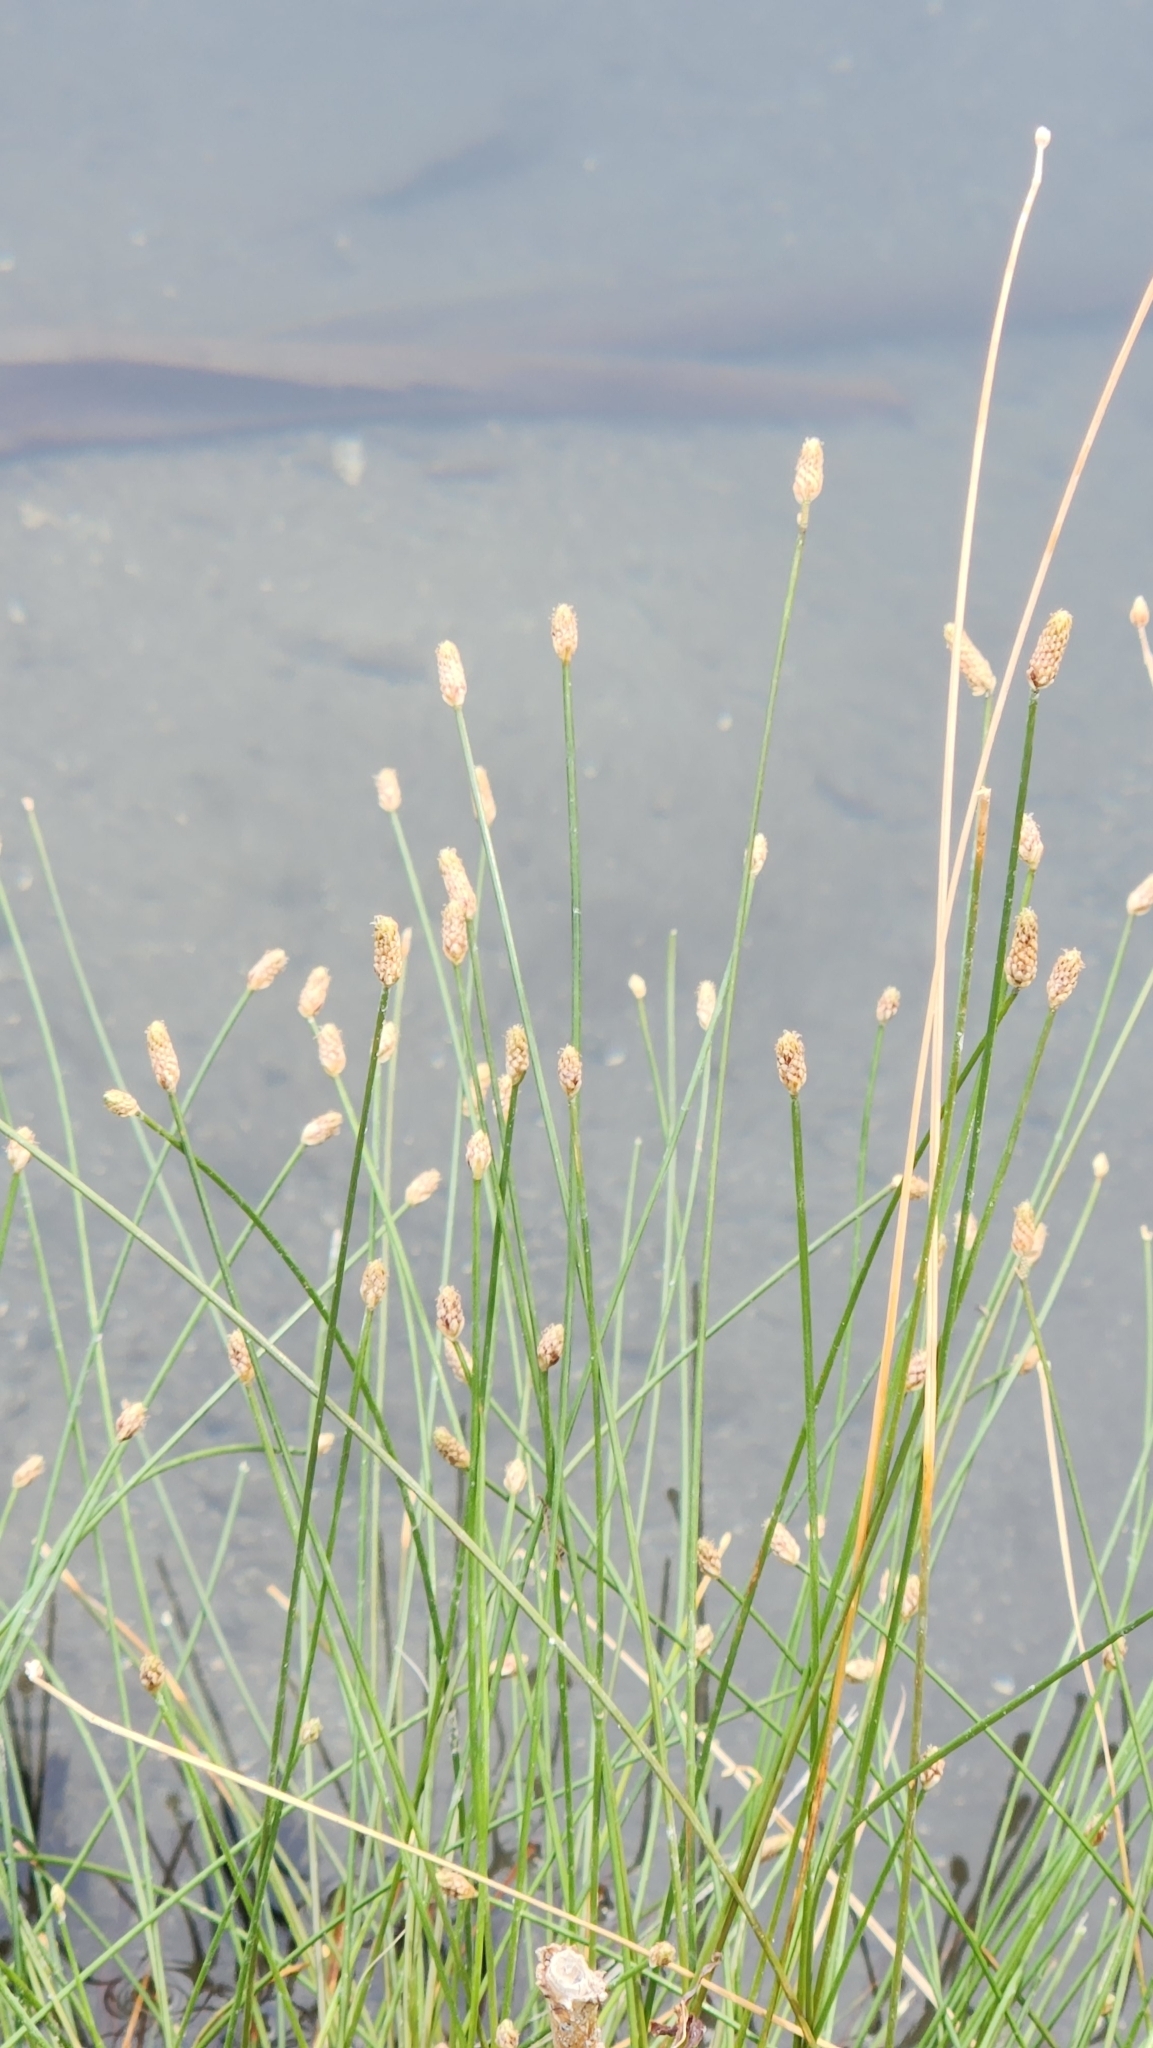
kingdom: Plantae
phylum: Tracheophyta
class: Liliopsida
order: Poales
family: Cyperaceae
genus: Eleocharis
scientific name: Eleocharis geniculata
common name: Canada spikesedge
